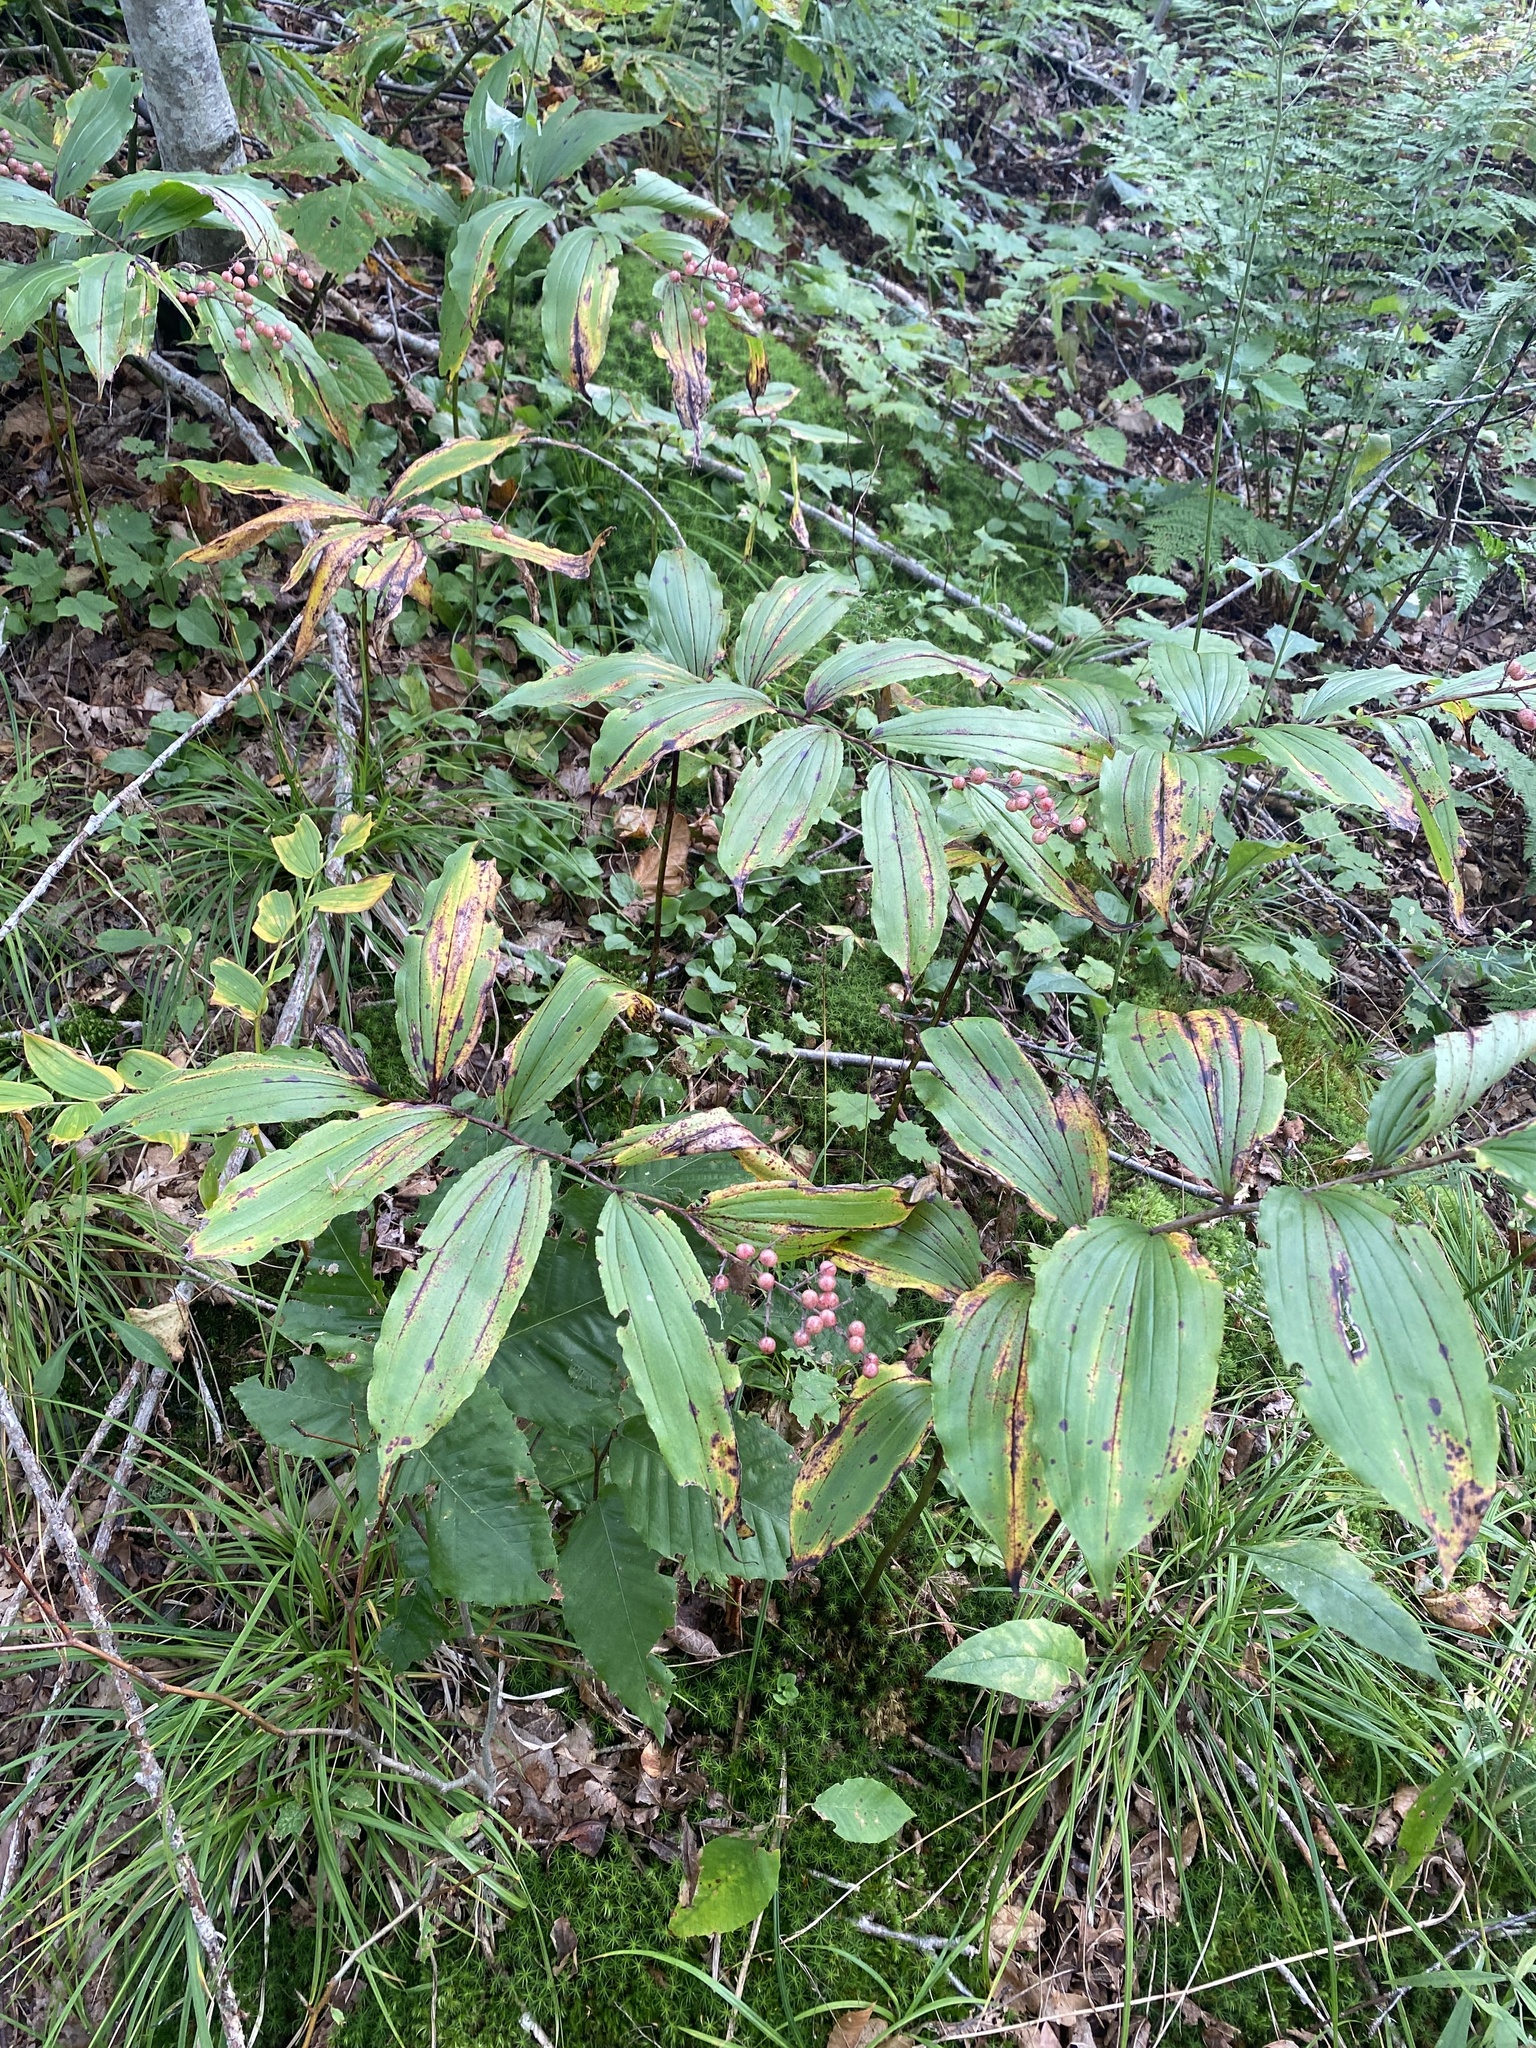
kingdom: Plantae
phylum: Tracheophyta
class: Liliopsida
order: Asparagales
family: Asparagaceae
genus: Maianthemum
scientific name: Maianthemum racemosum
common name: False spikenard
